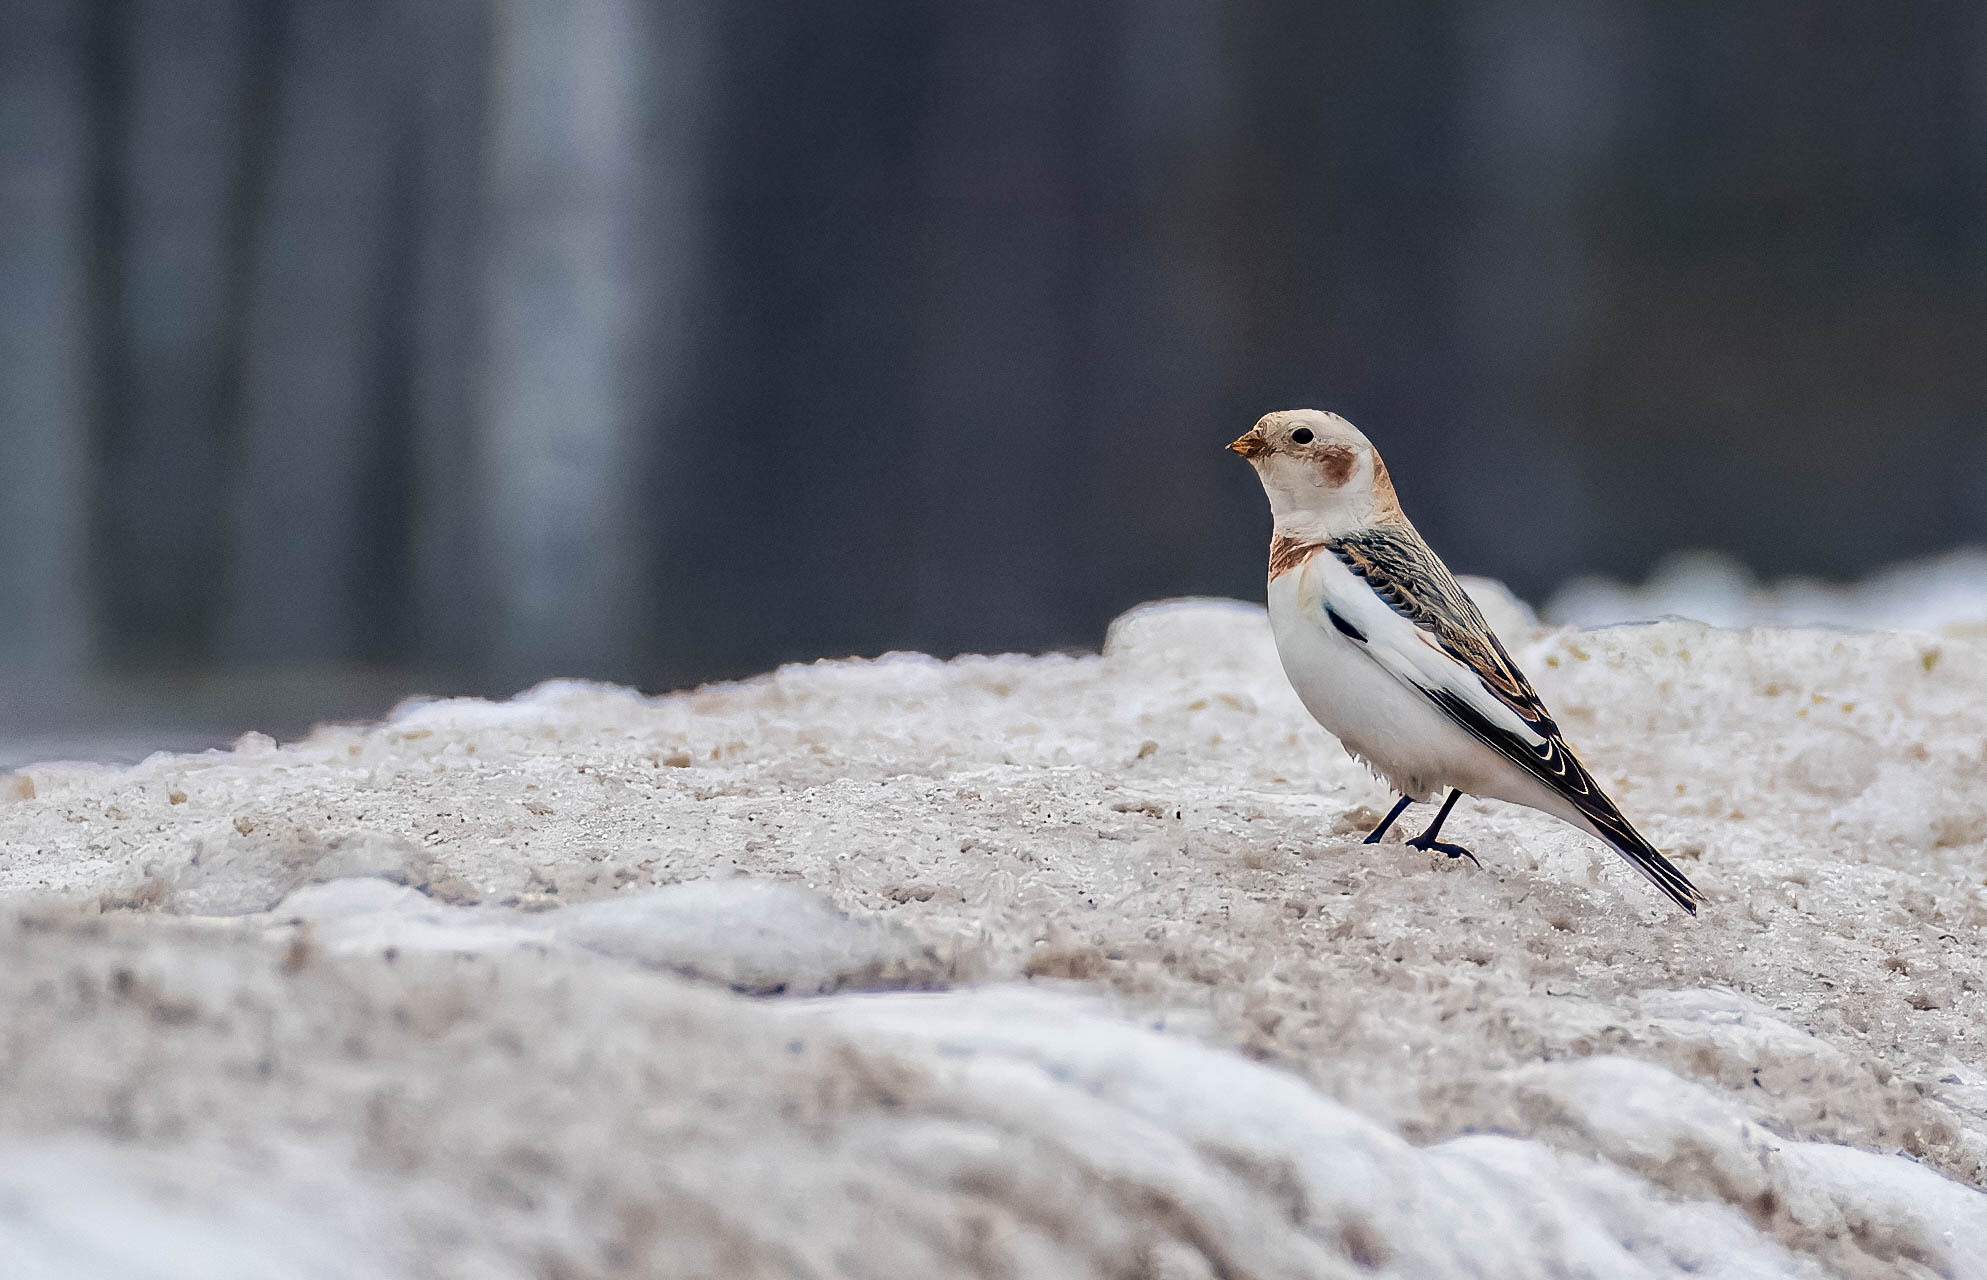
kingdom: Animalia
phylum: Chordata
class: Aves
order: Passeriformes
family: Calcariidae
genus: Plectrophenax
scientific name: Plectrophenax nivalis
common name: Snow bunting
